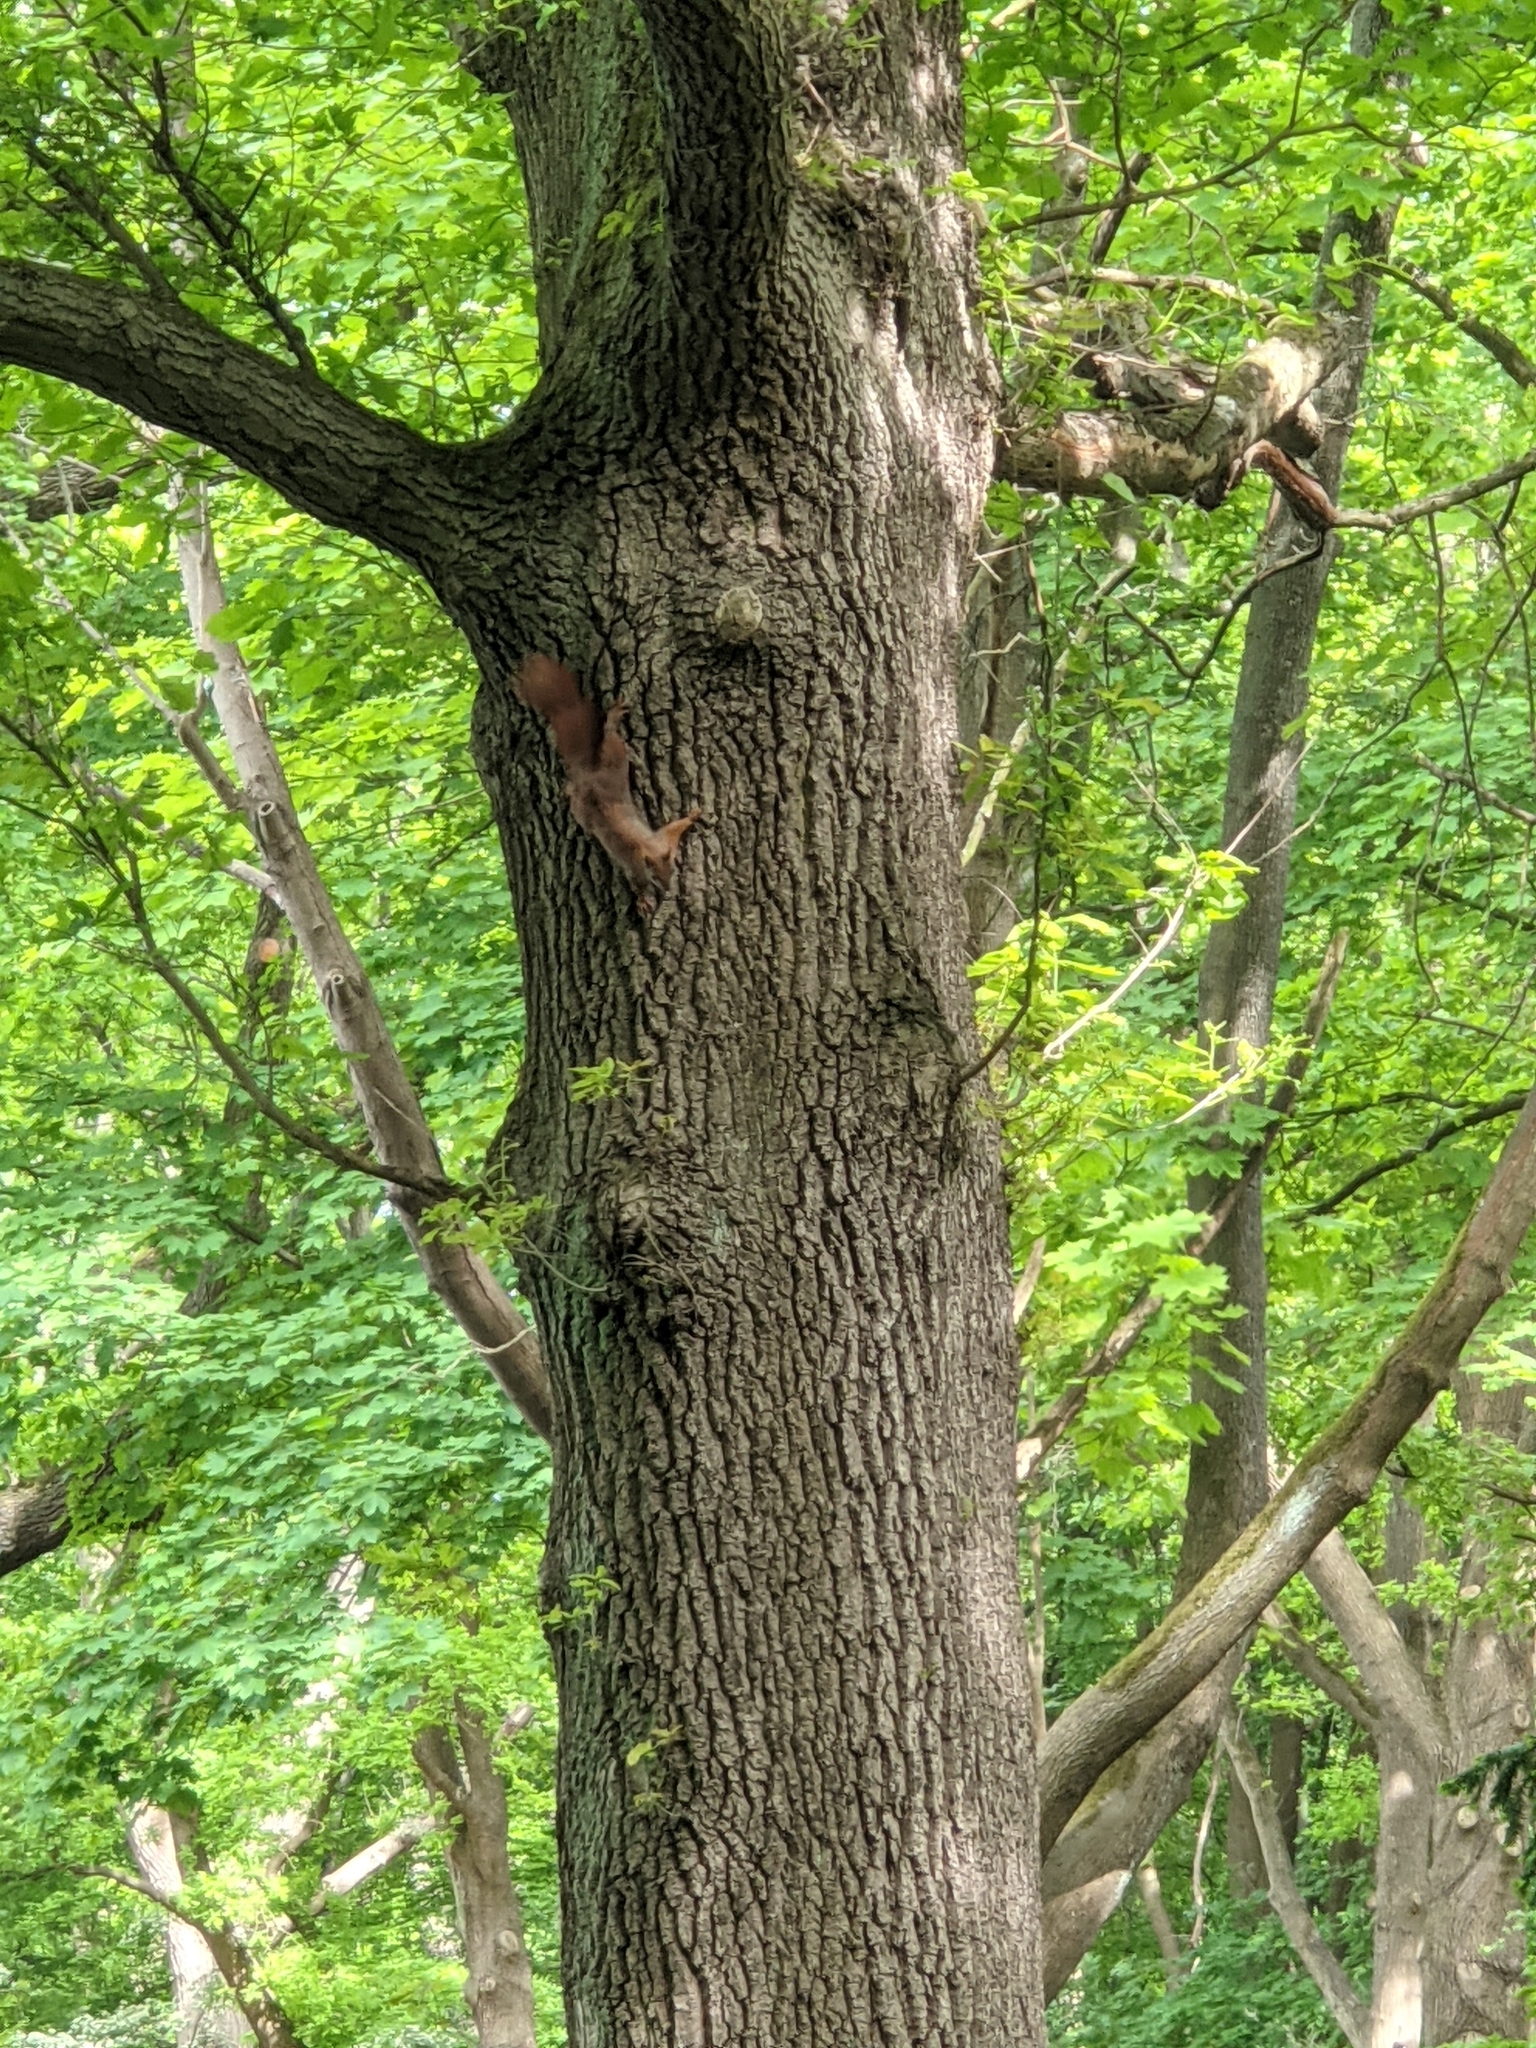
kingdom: Animalia
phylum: Chordata
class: Mammalia
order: Rodentia
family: Sciuridae
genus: Sciurus
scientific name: Sciurus vulgaris
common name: Eurasian red squirrel
